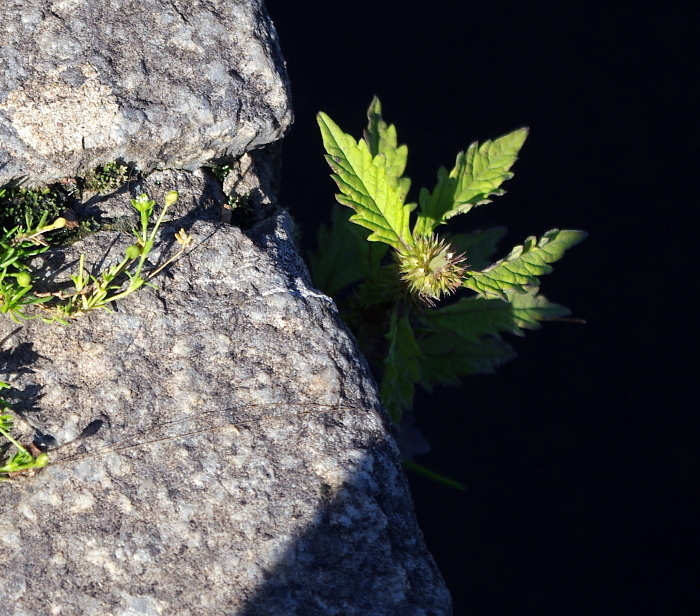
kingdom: Plantae
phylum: Tracheophyta
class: Magnoliopsida
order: Lamiales
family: Lamiaceae
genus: Lycopus
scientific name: Lycopus europaeus
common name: European bugleweed
